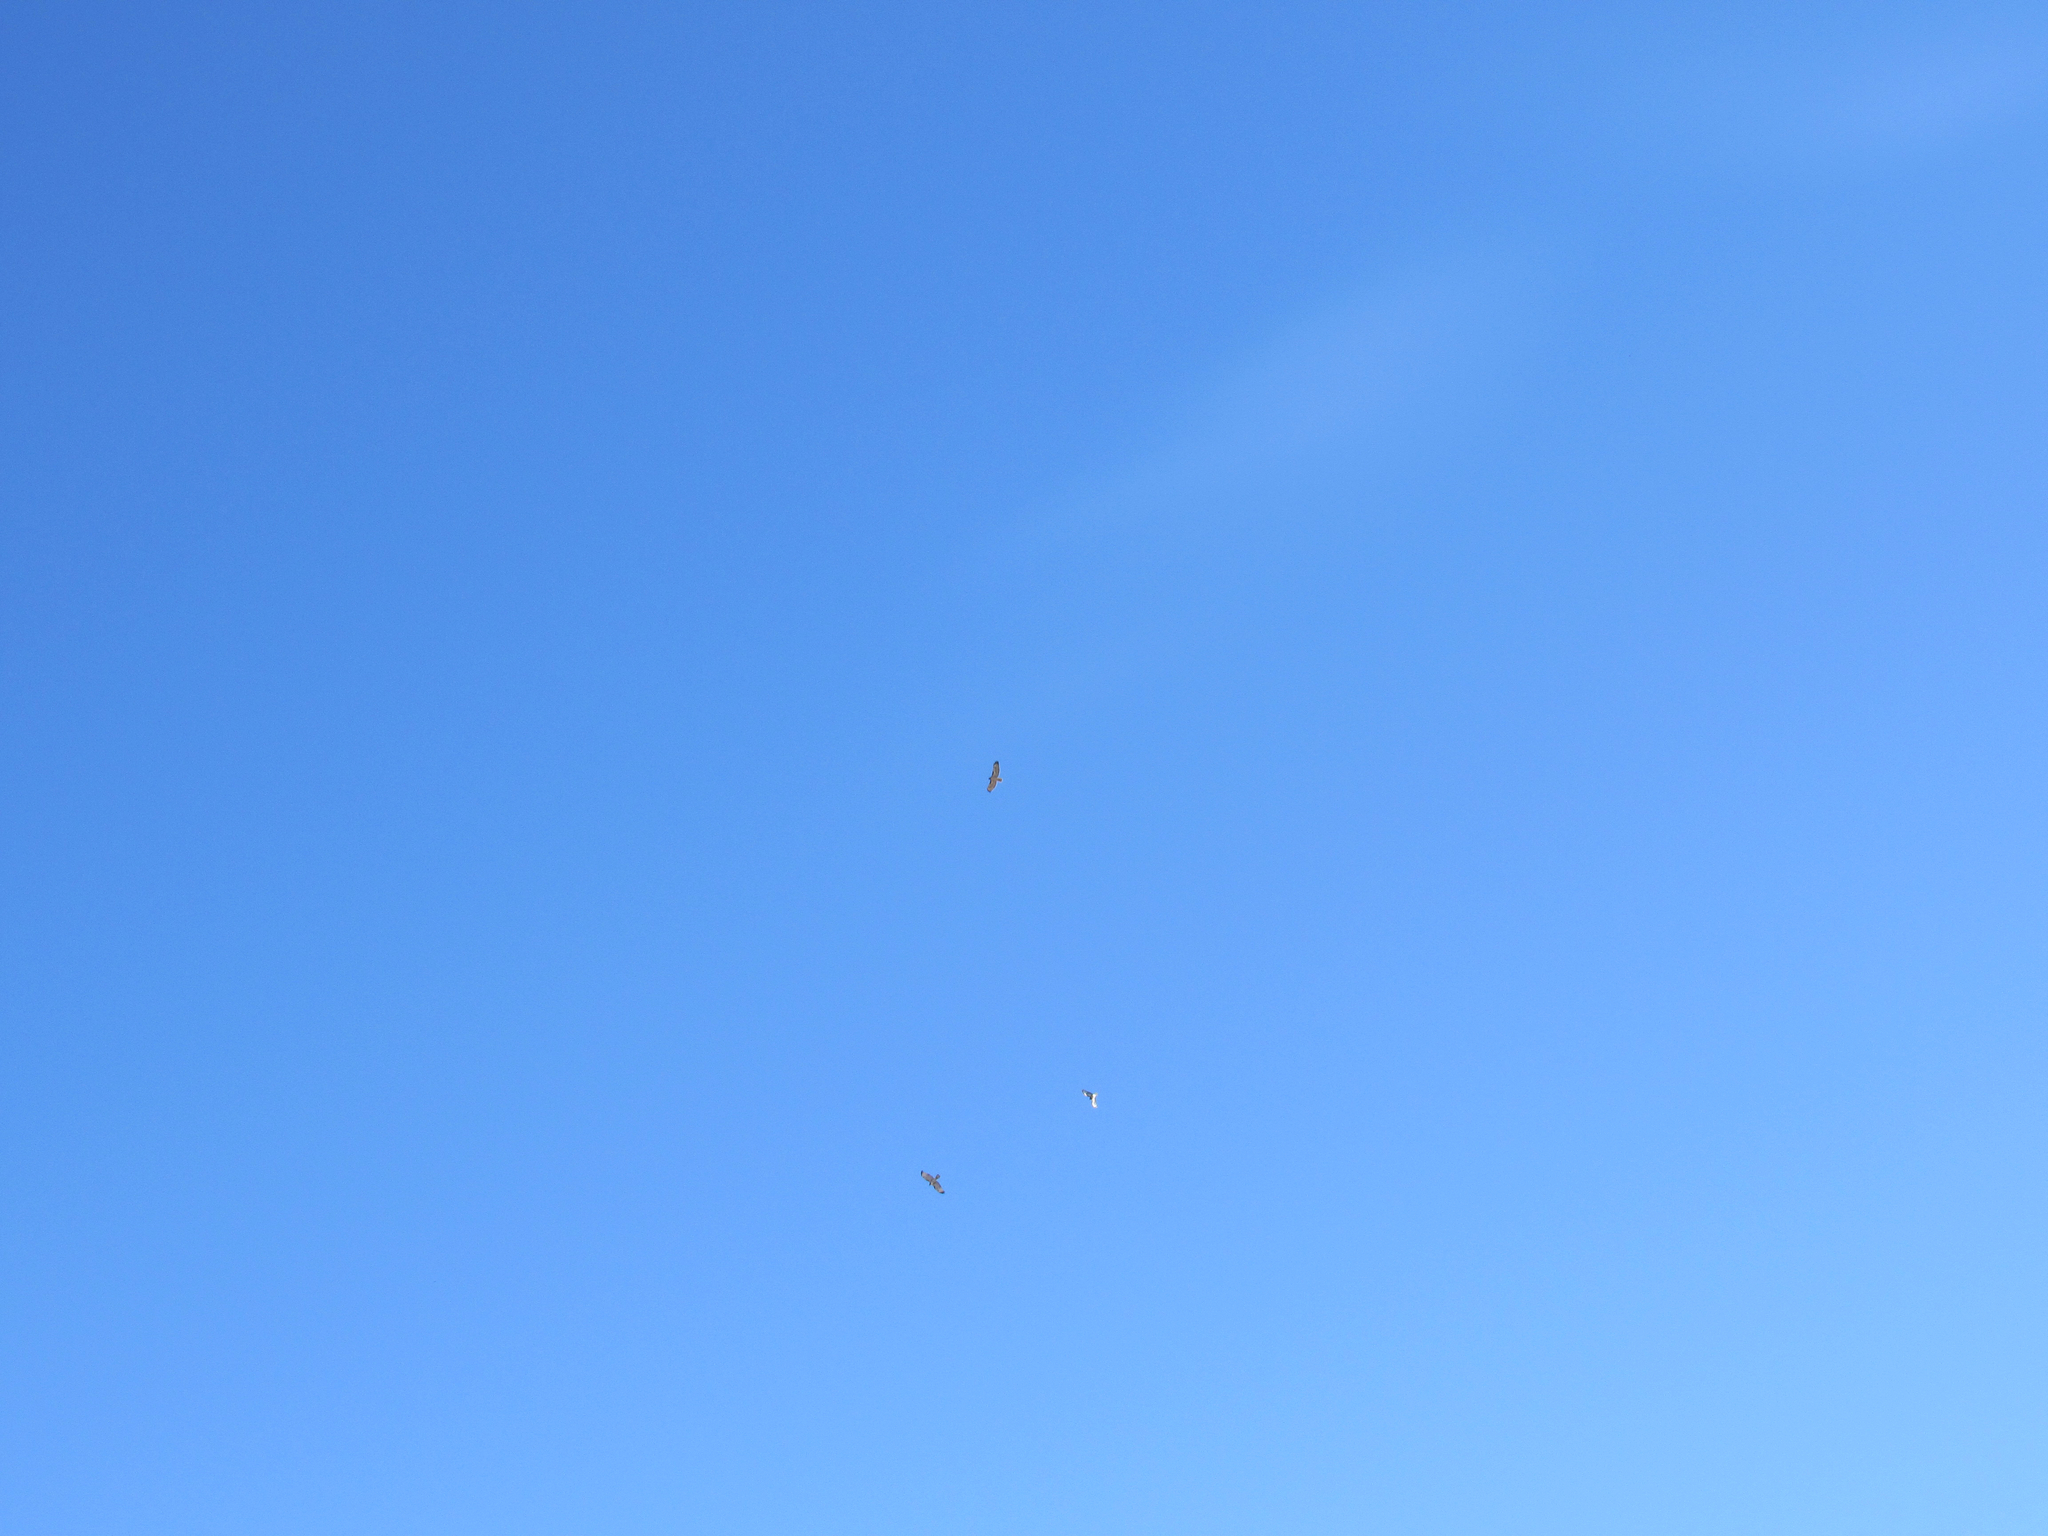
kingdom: Animalia
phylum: Chordata
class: Aves
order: Accipitriformes
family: Accipitridae
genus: Buteo
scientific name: Buteo jamaicensis
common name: Red-tailed hawk
